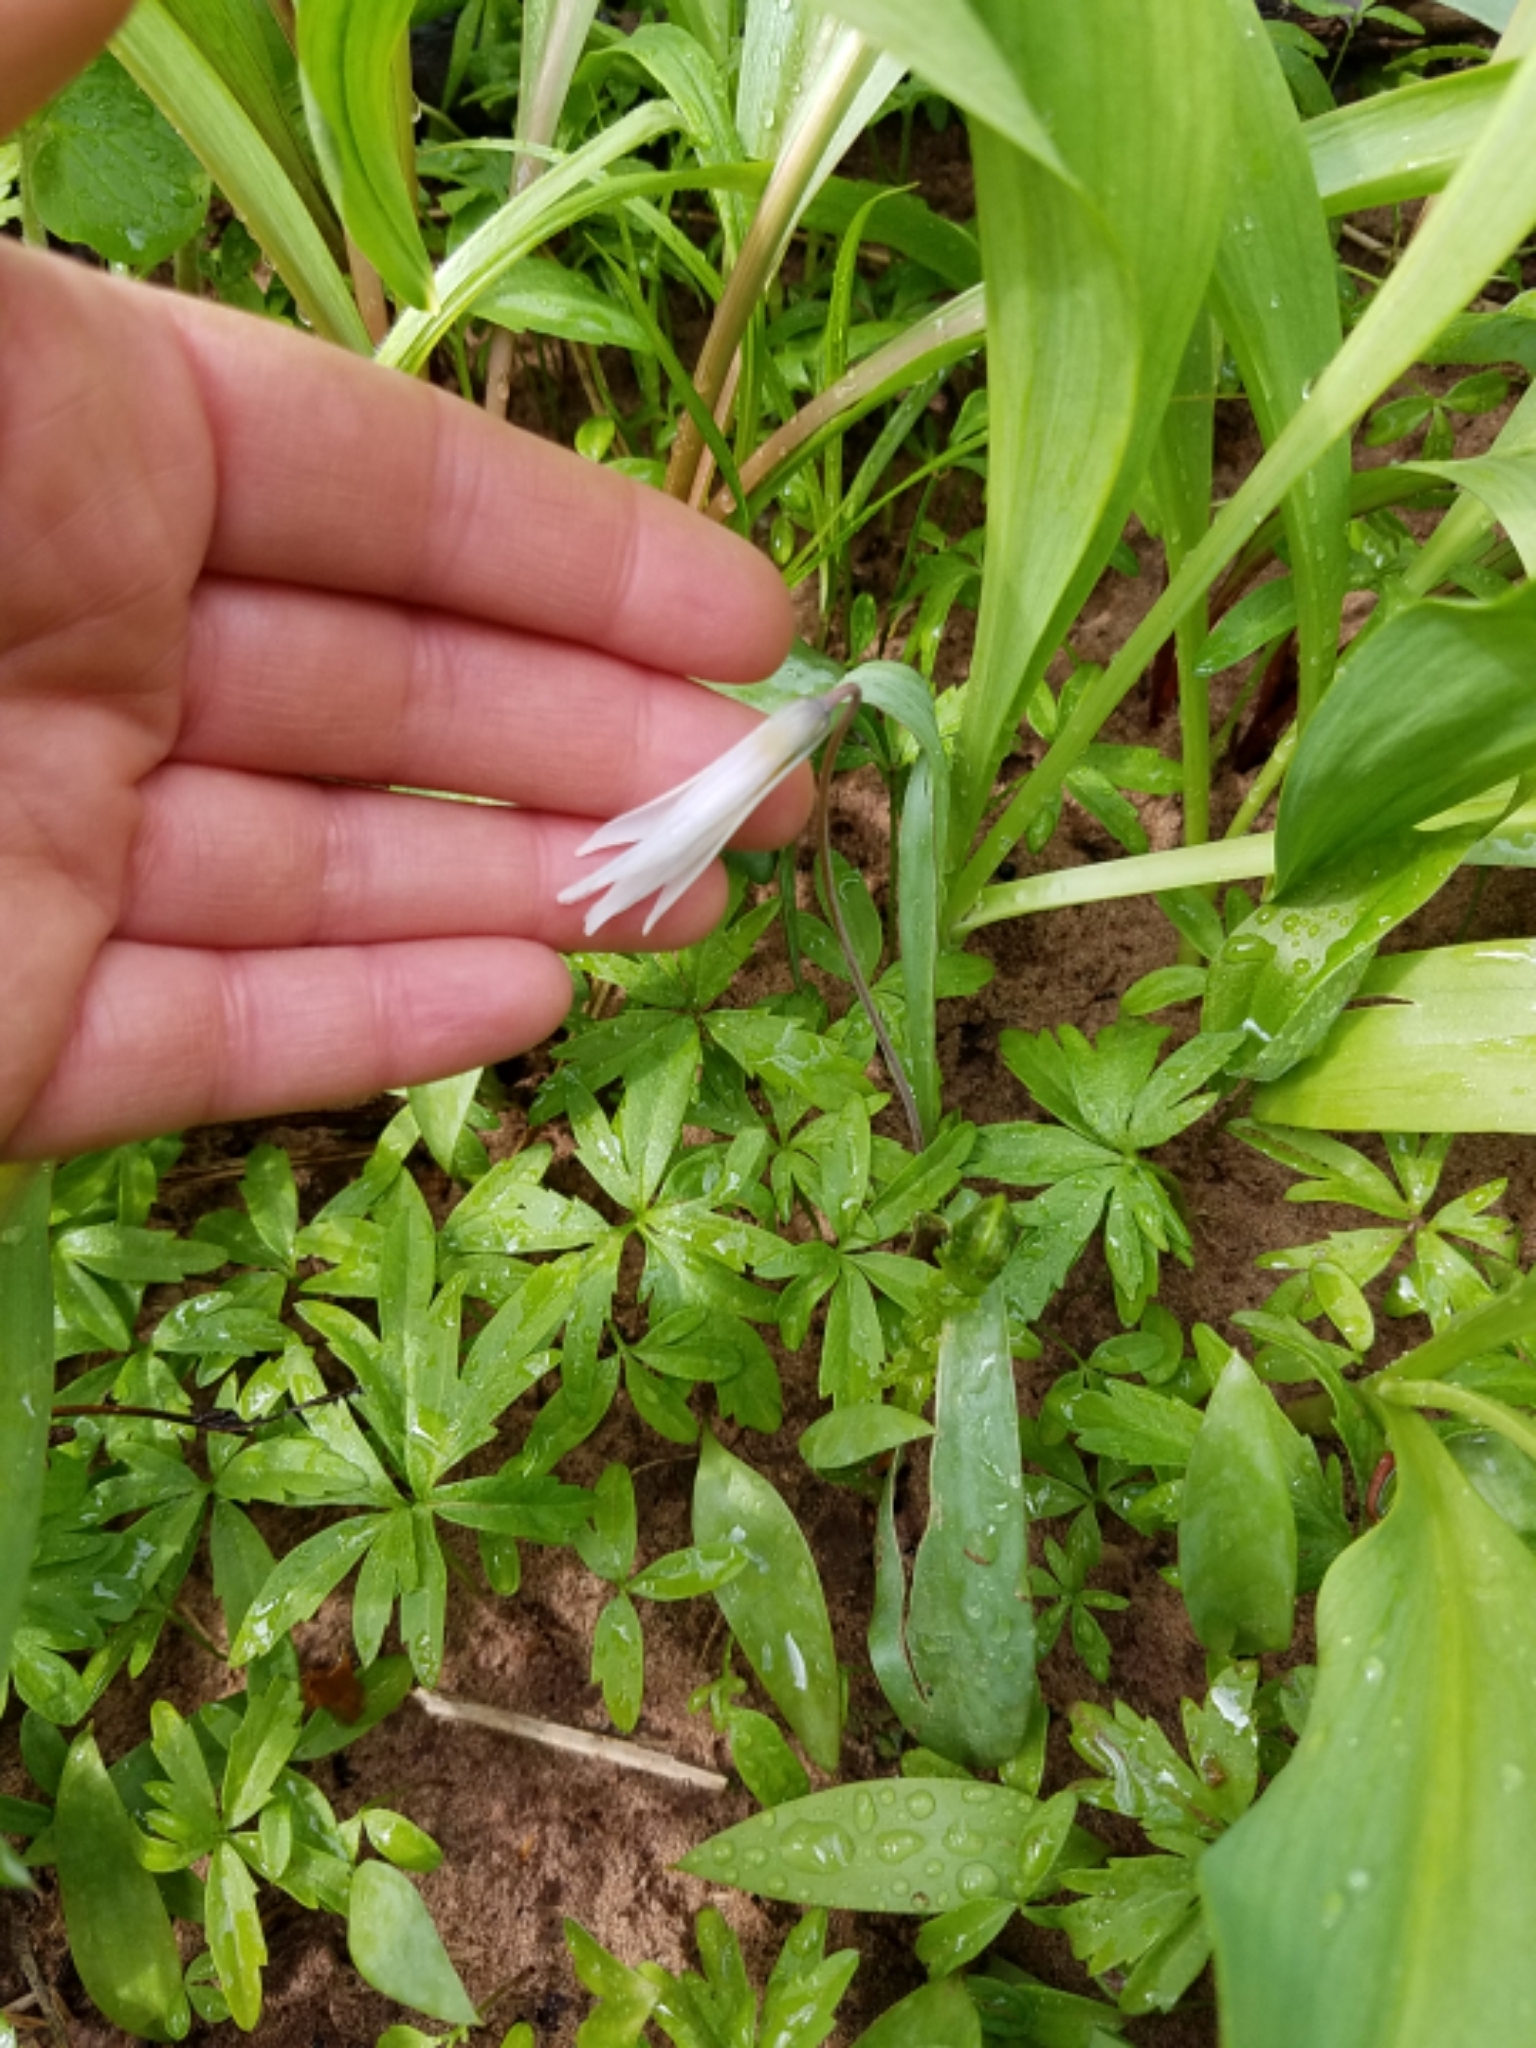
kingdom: Plantae
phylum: Tracheophyta
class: Liliopsida
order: Liliales
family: Liliaceae
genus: Erythronium
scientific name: Erythronium albidum
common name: White trout-lily
